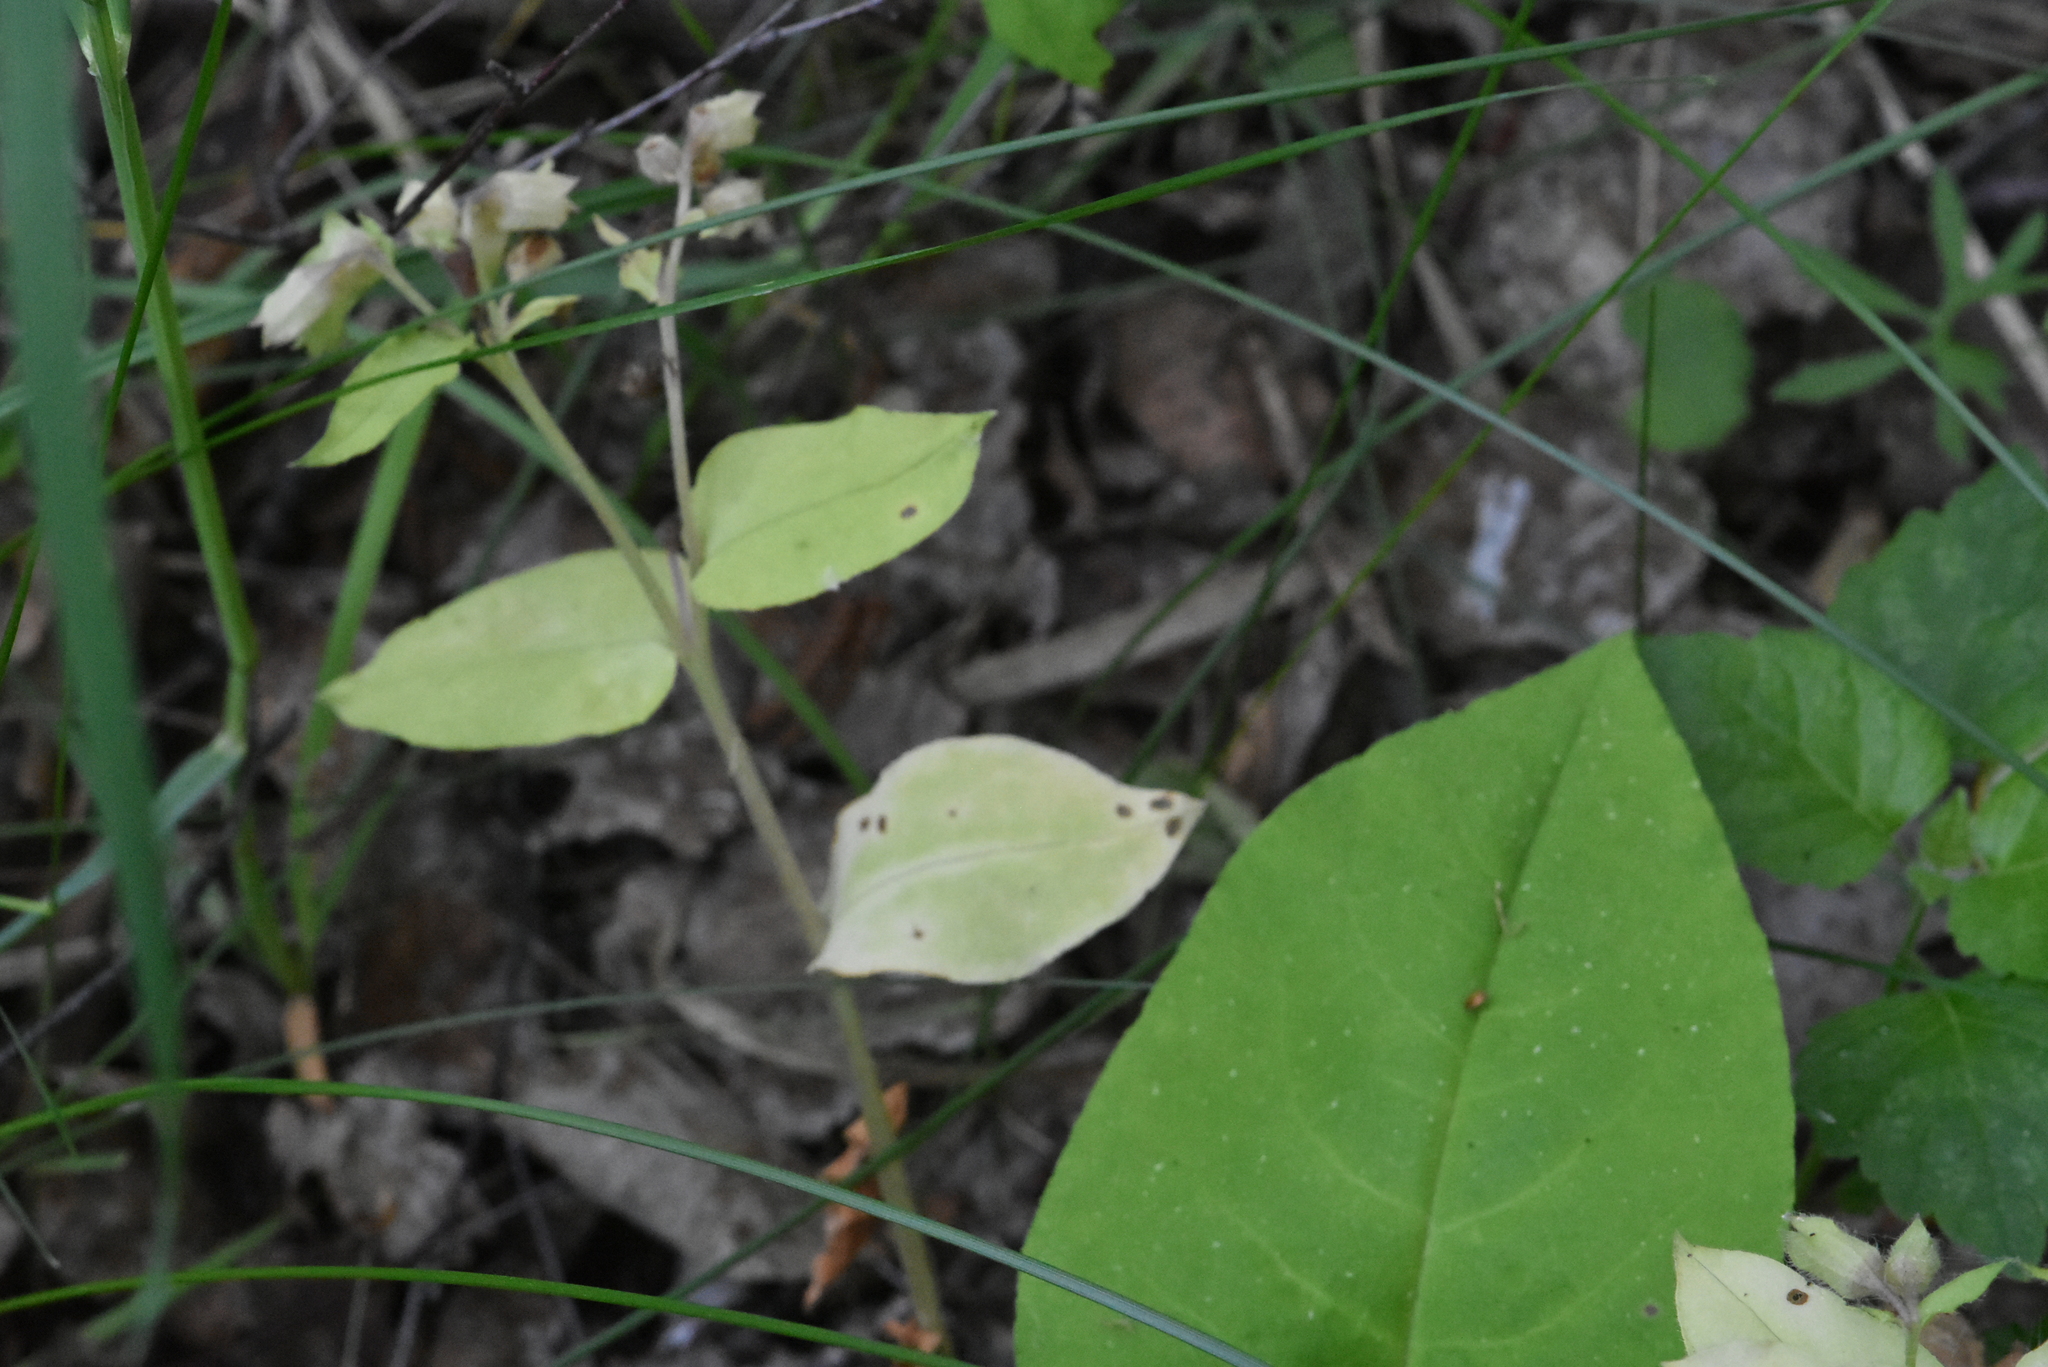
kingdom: Plantae
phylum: Tracheophyta
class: Magnoliopsida
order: Boraginales
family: Boraginaceae
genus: Pulmonaria
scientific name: Pulmonaria obscura
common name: Suffolk lungwort
